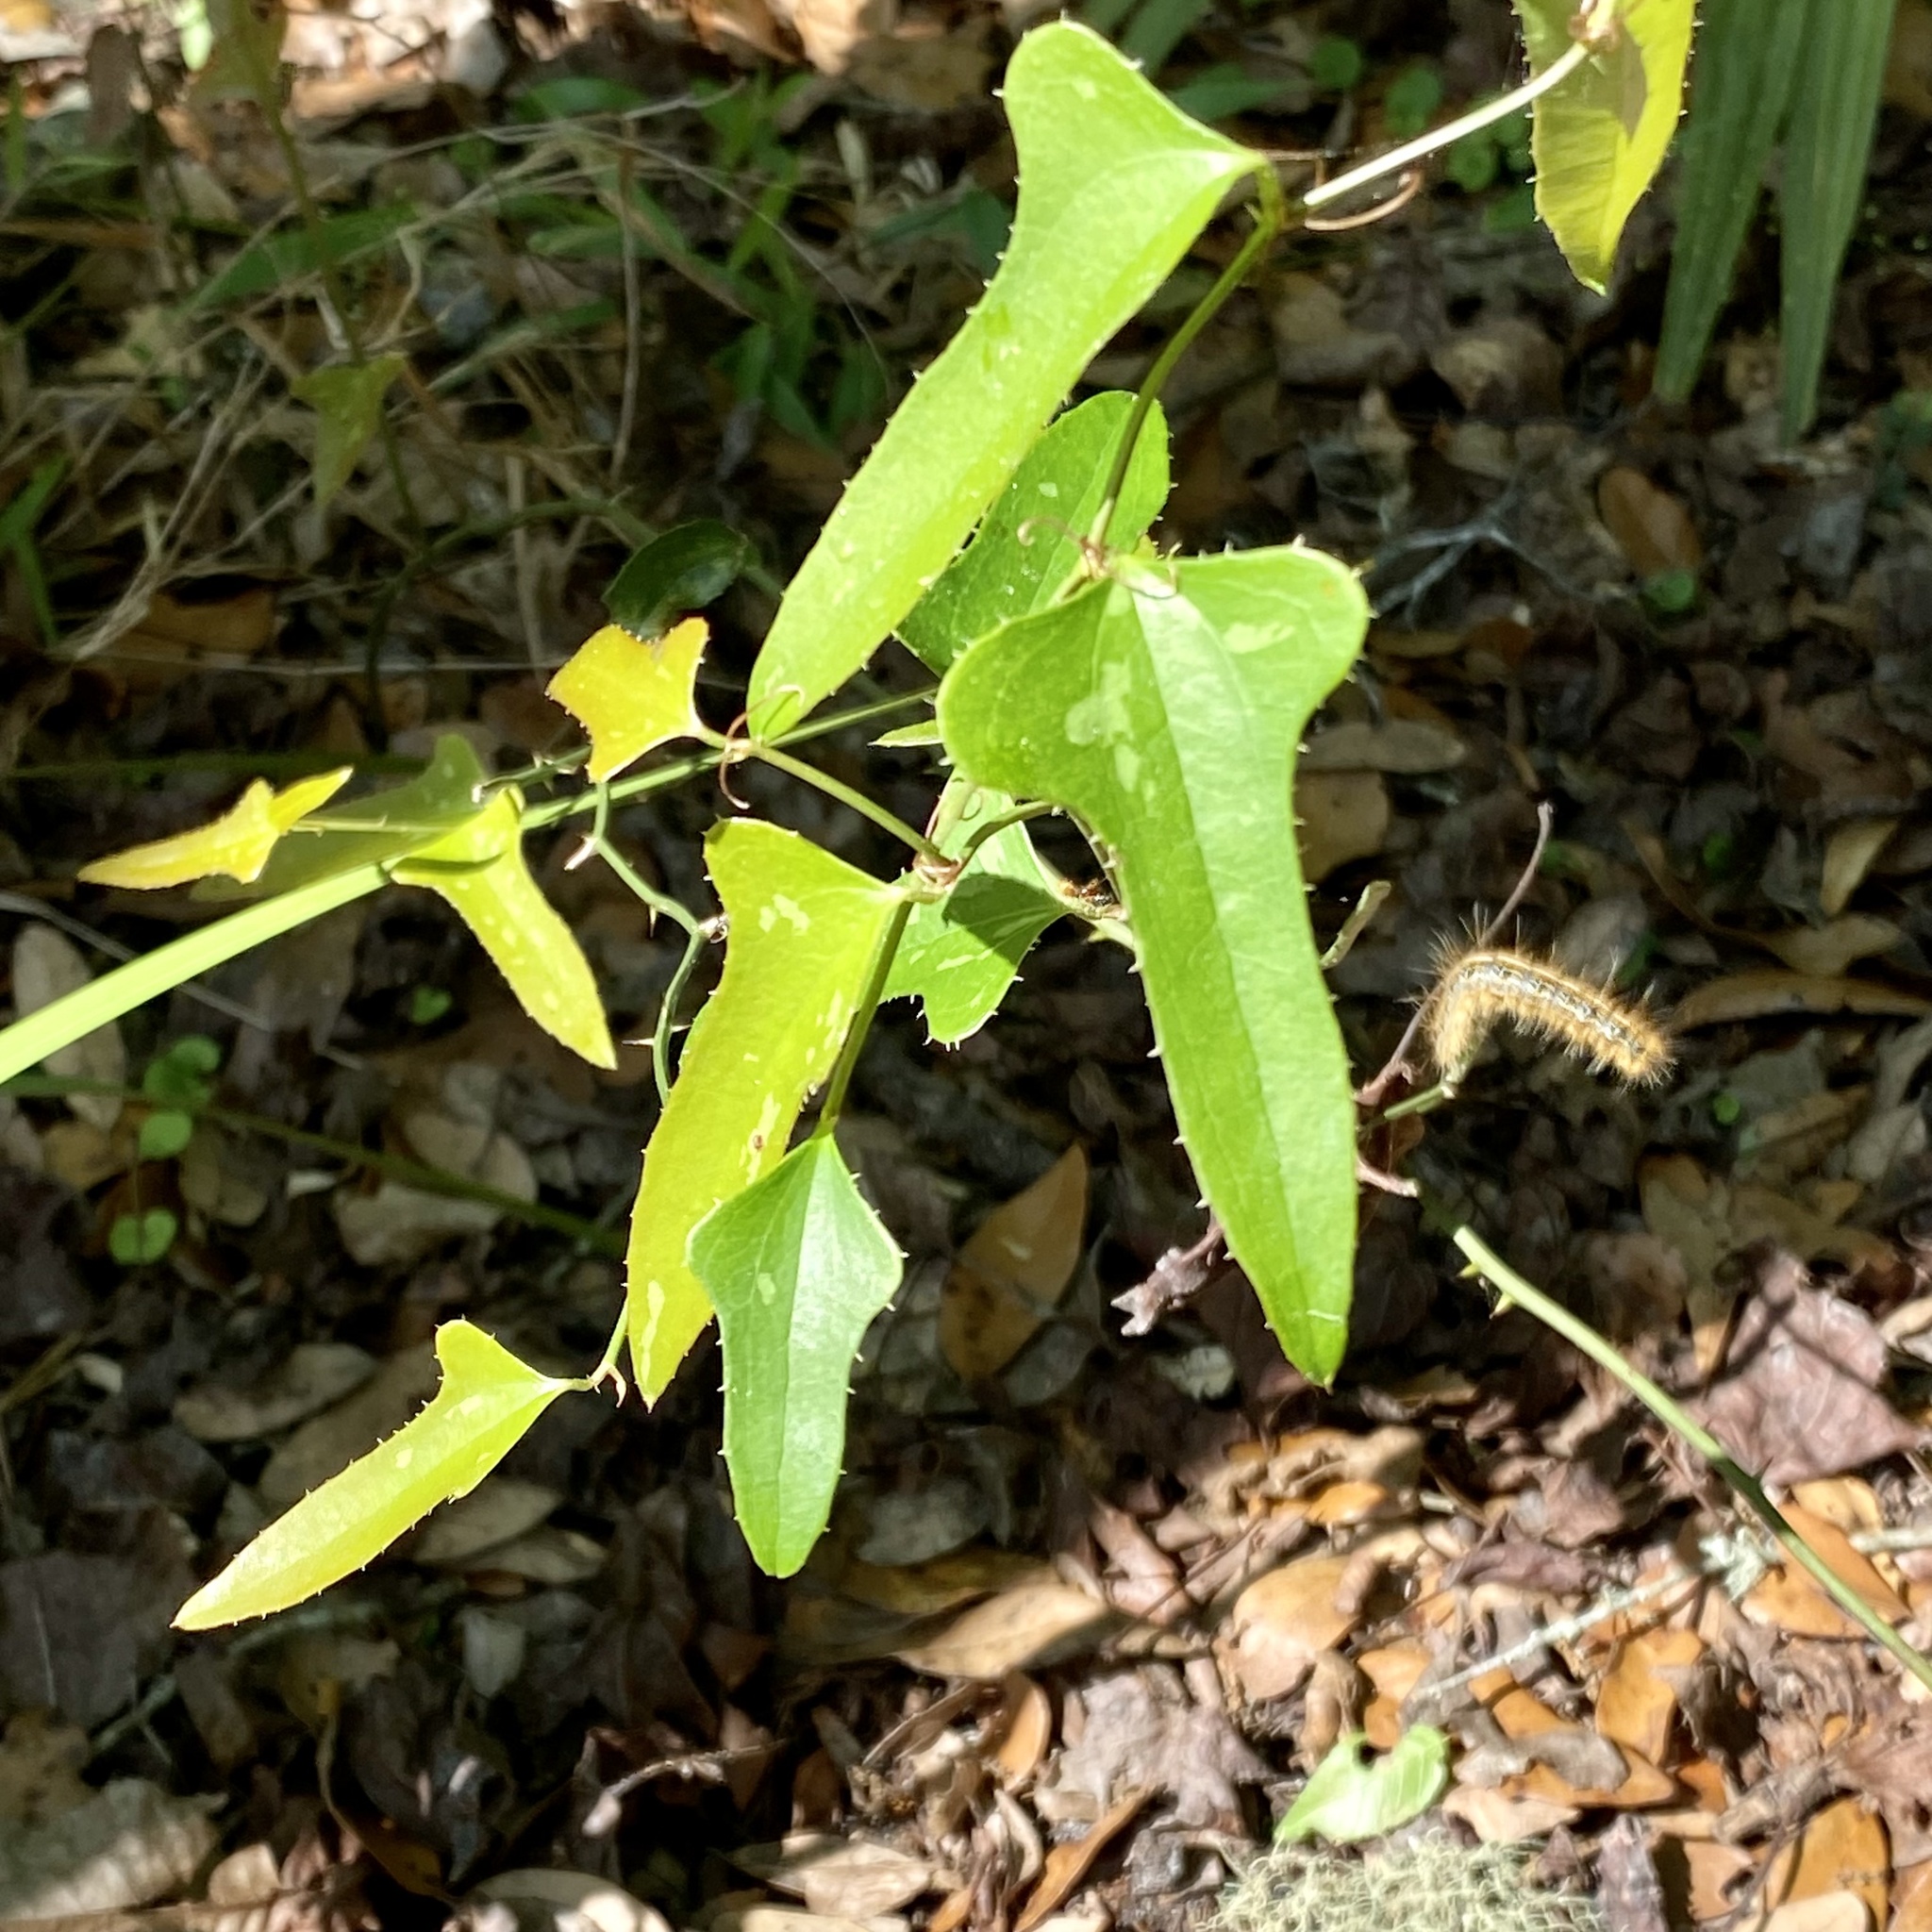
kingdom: Plantae
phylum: Tracheophyta
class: Liliopsida
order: Liliales
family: Smilacaceae
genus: Smilax
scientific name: Smilax bona-nox
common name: Catbrier
